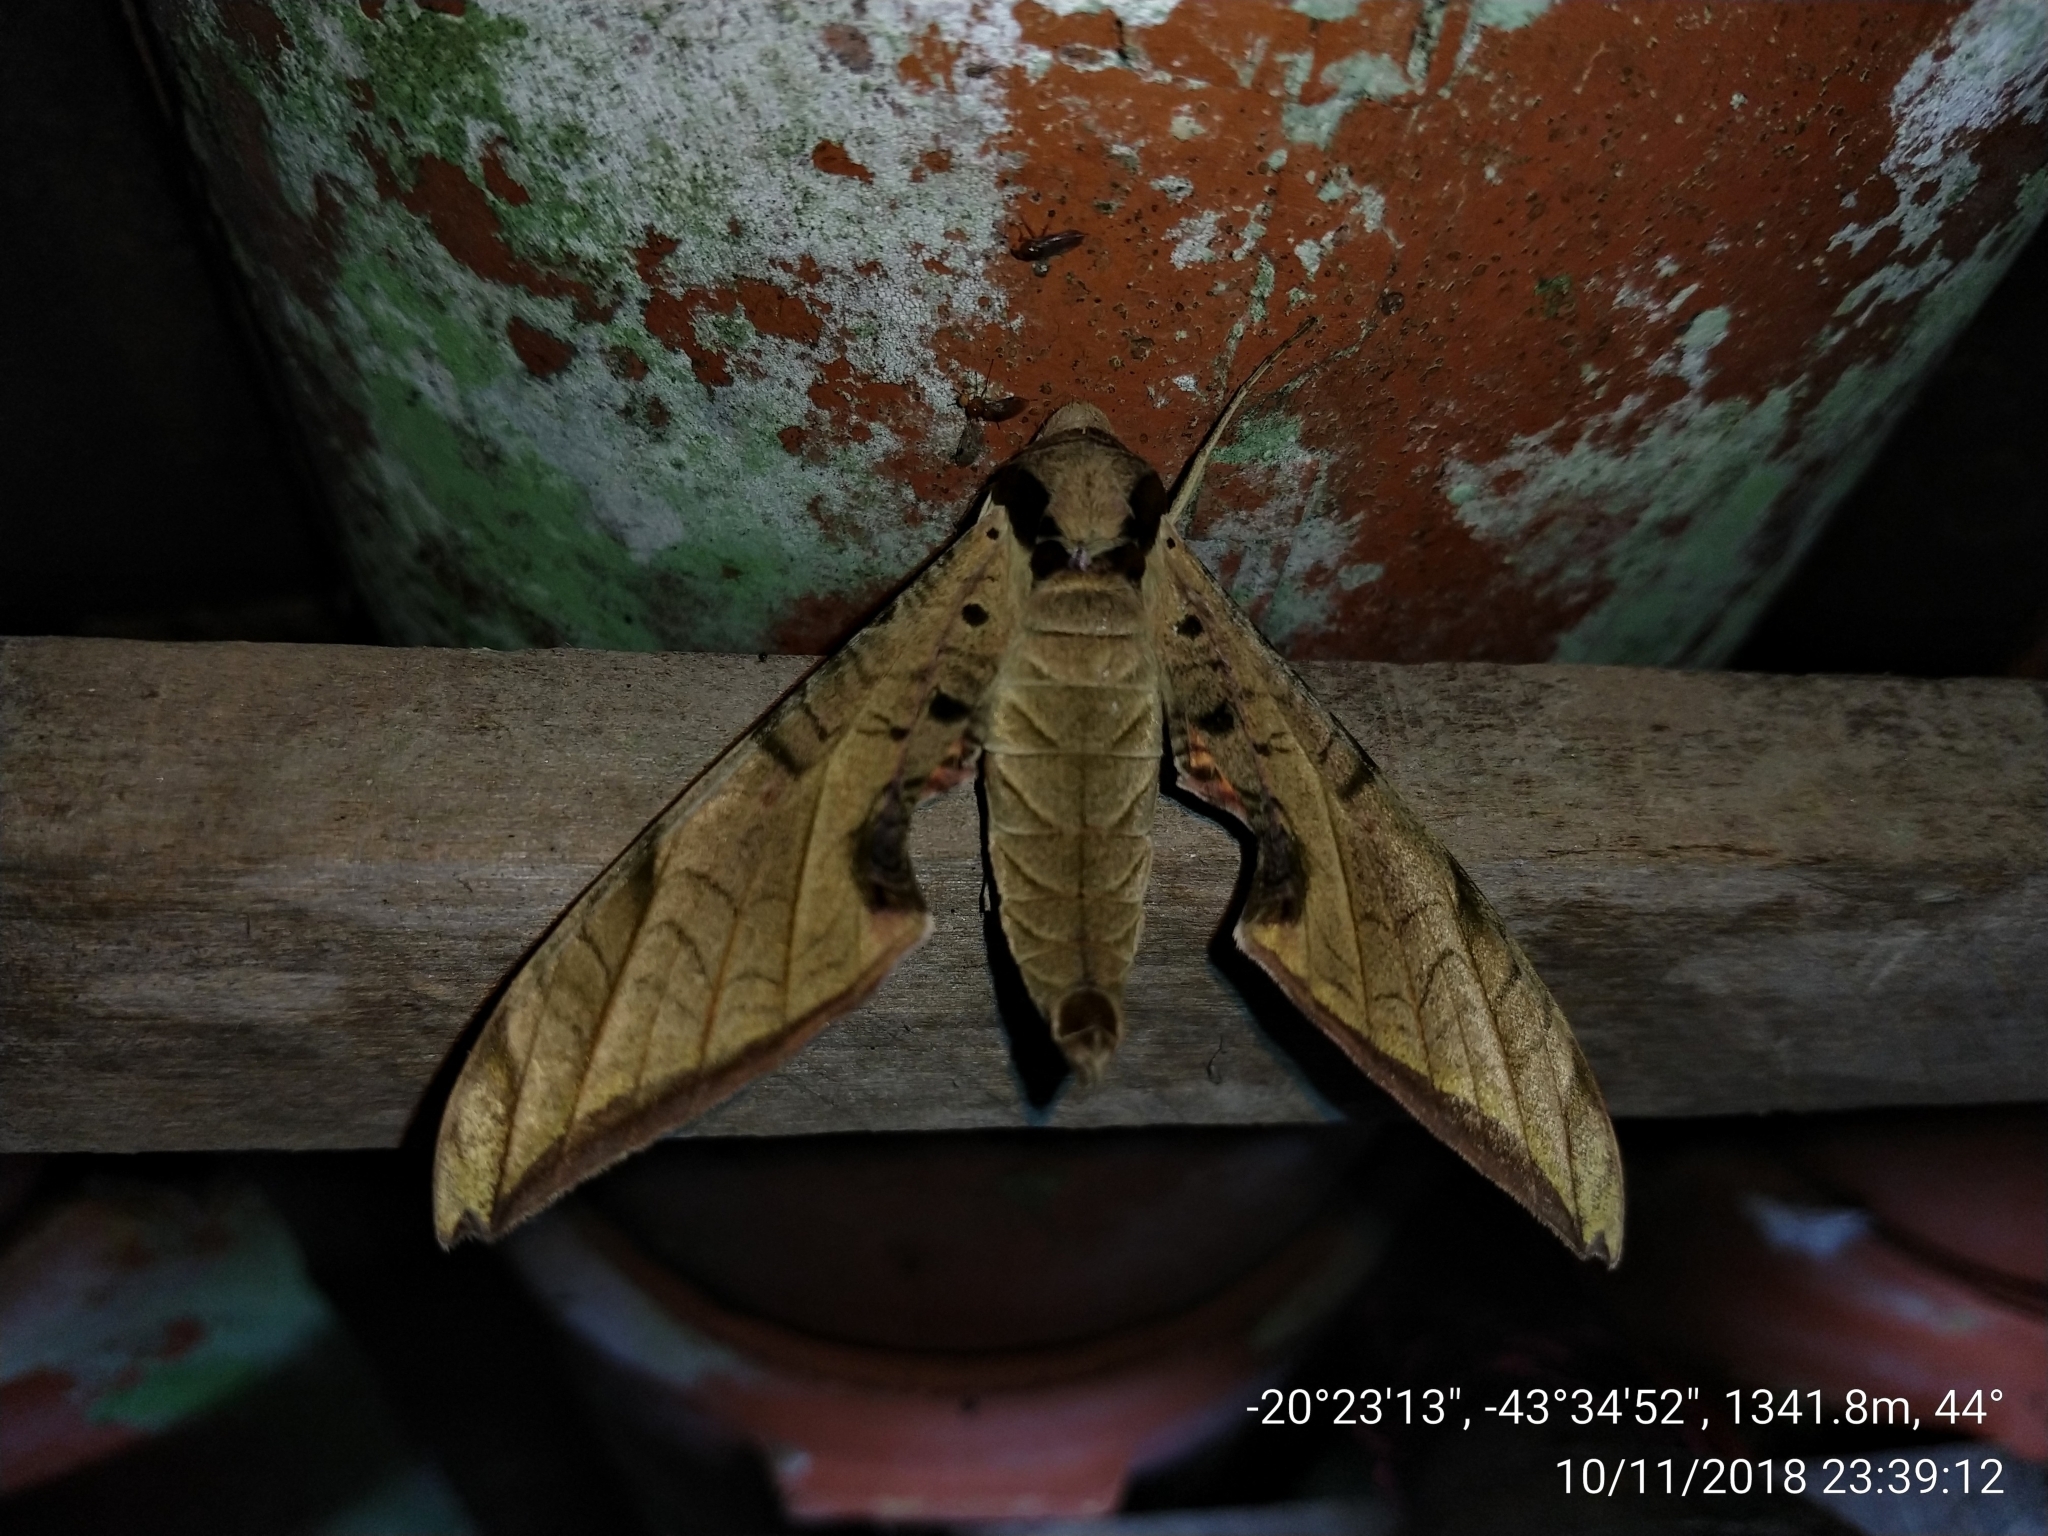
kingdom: Animalia
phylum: Arthropoda
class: Insecta
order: Lepidoptera
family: Sphingidae
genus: Protambulyx
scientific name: Protambulyx strigilis
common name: Streaked sphinx
